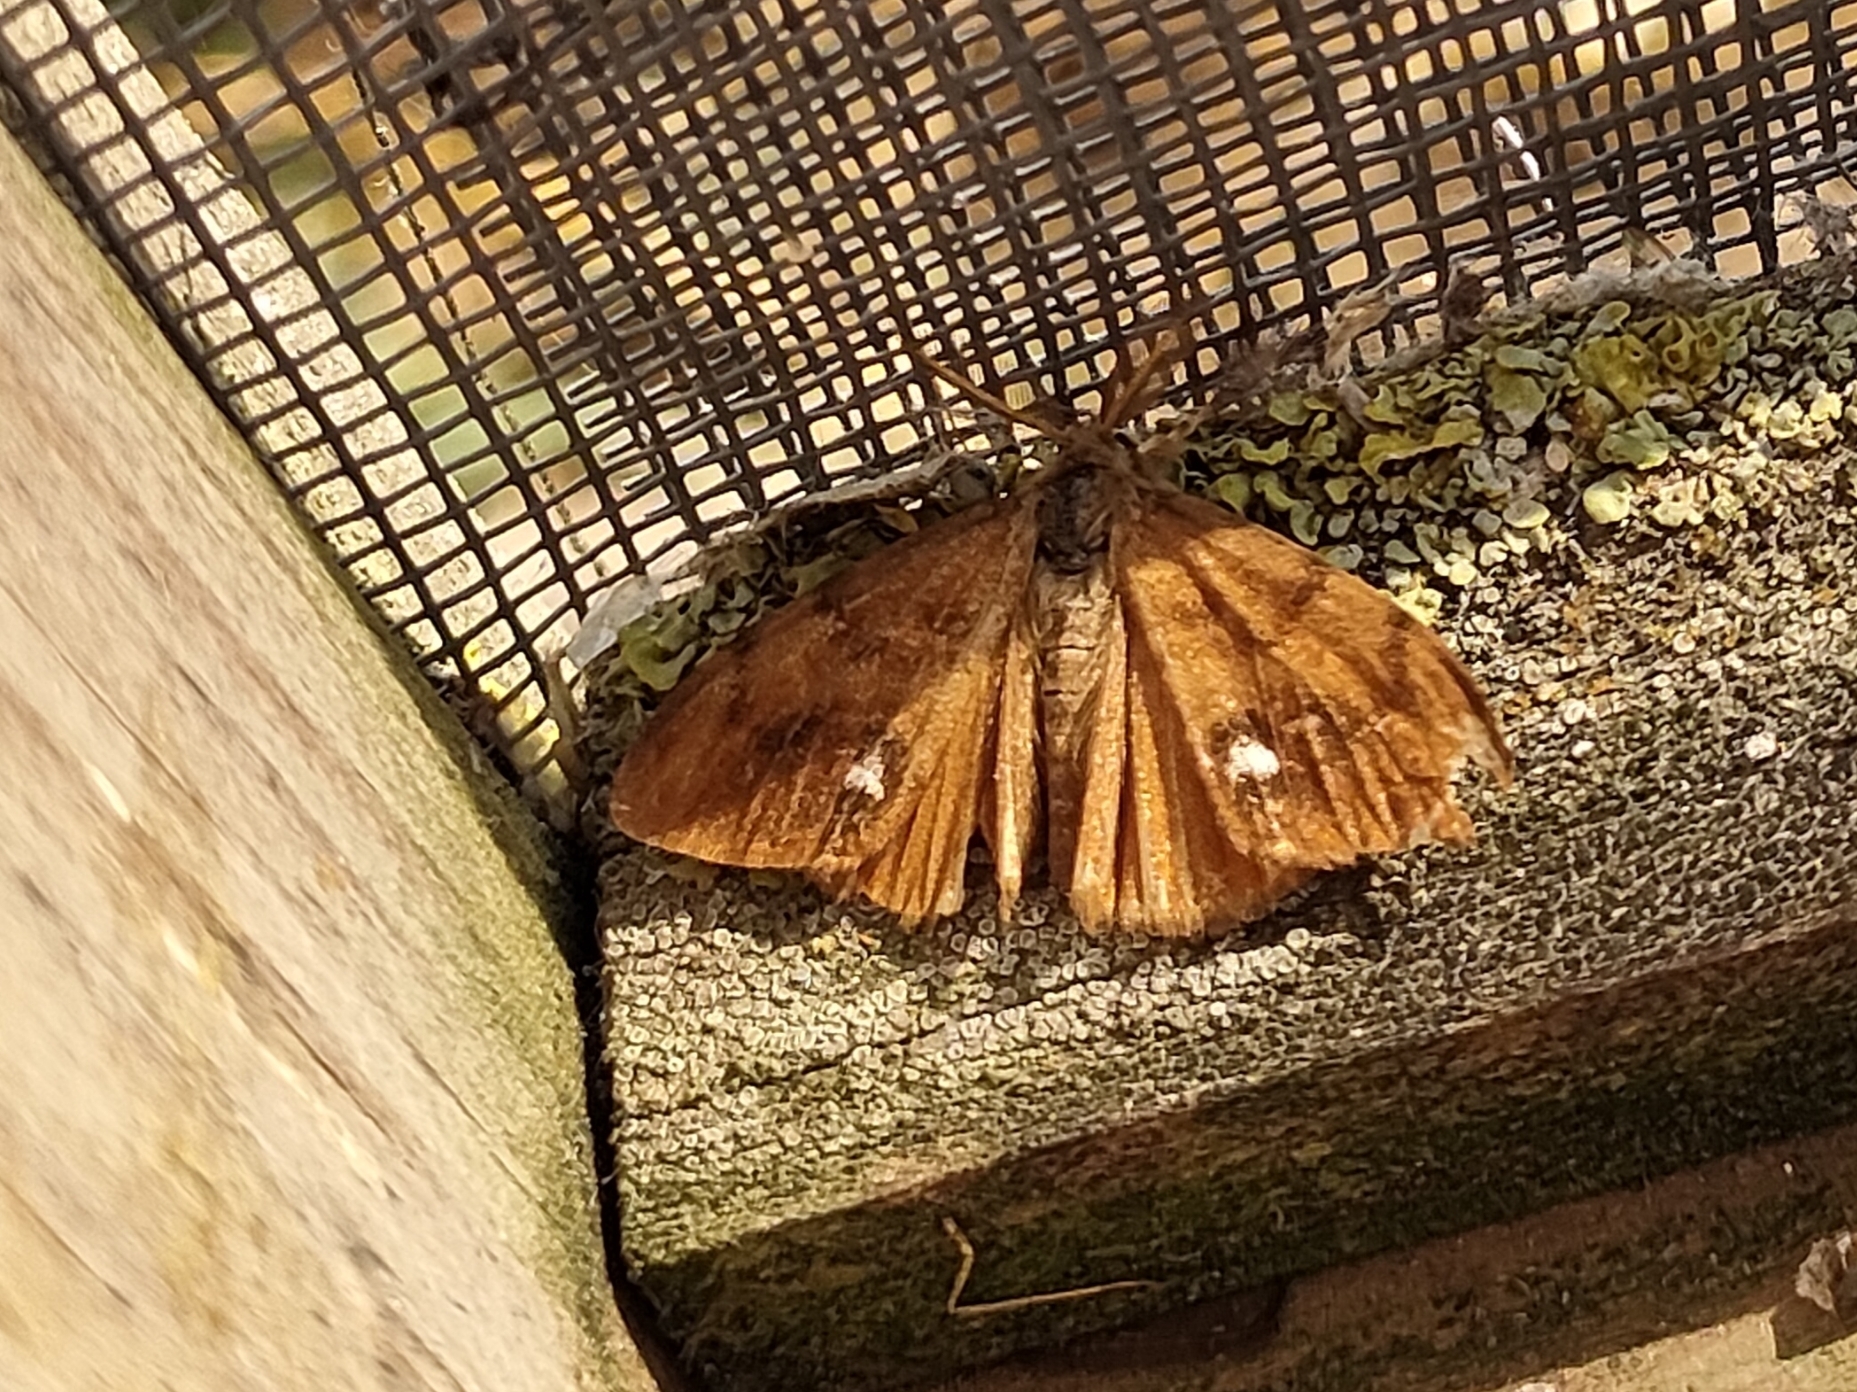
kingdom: Animalia
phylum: Arthropoda
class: Insecta
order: Lepidoptera
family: Erebidae
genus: Orgyia
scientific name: Orgyia antiqua
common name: Vapourer
